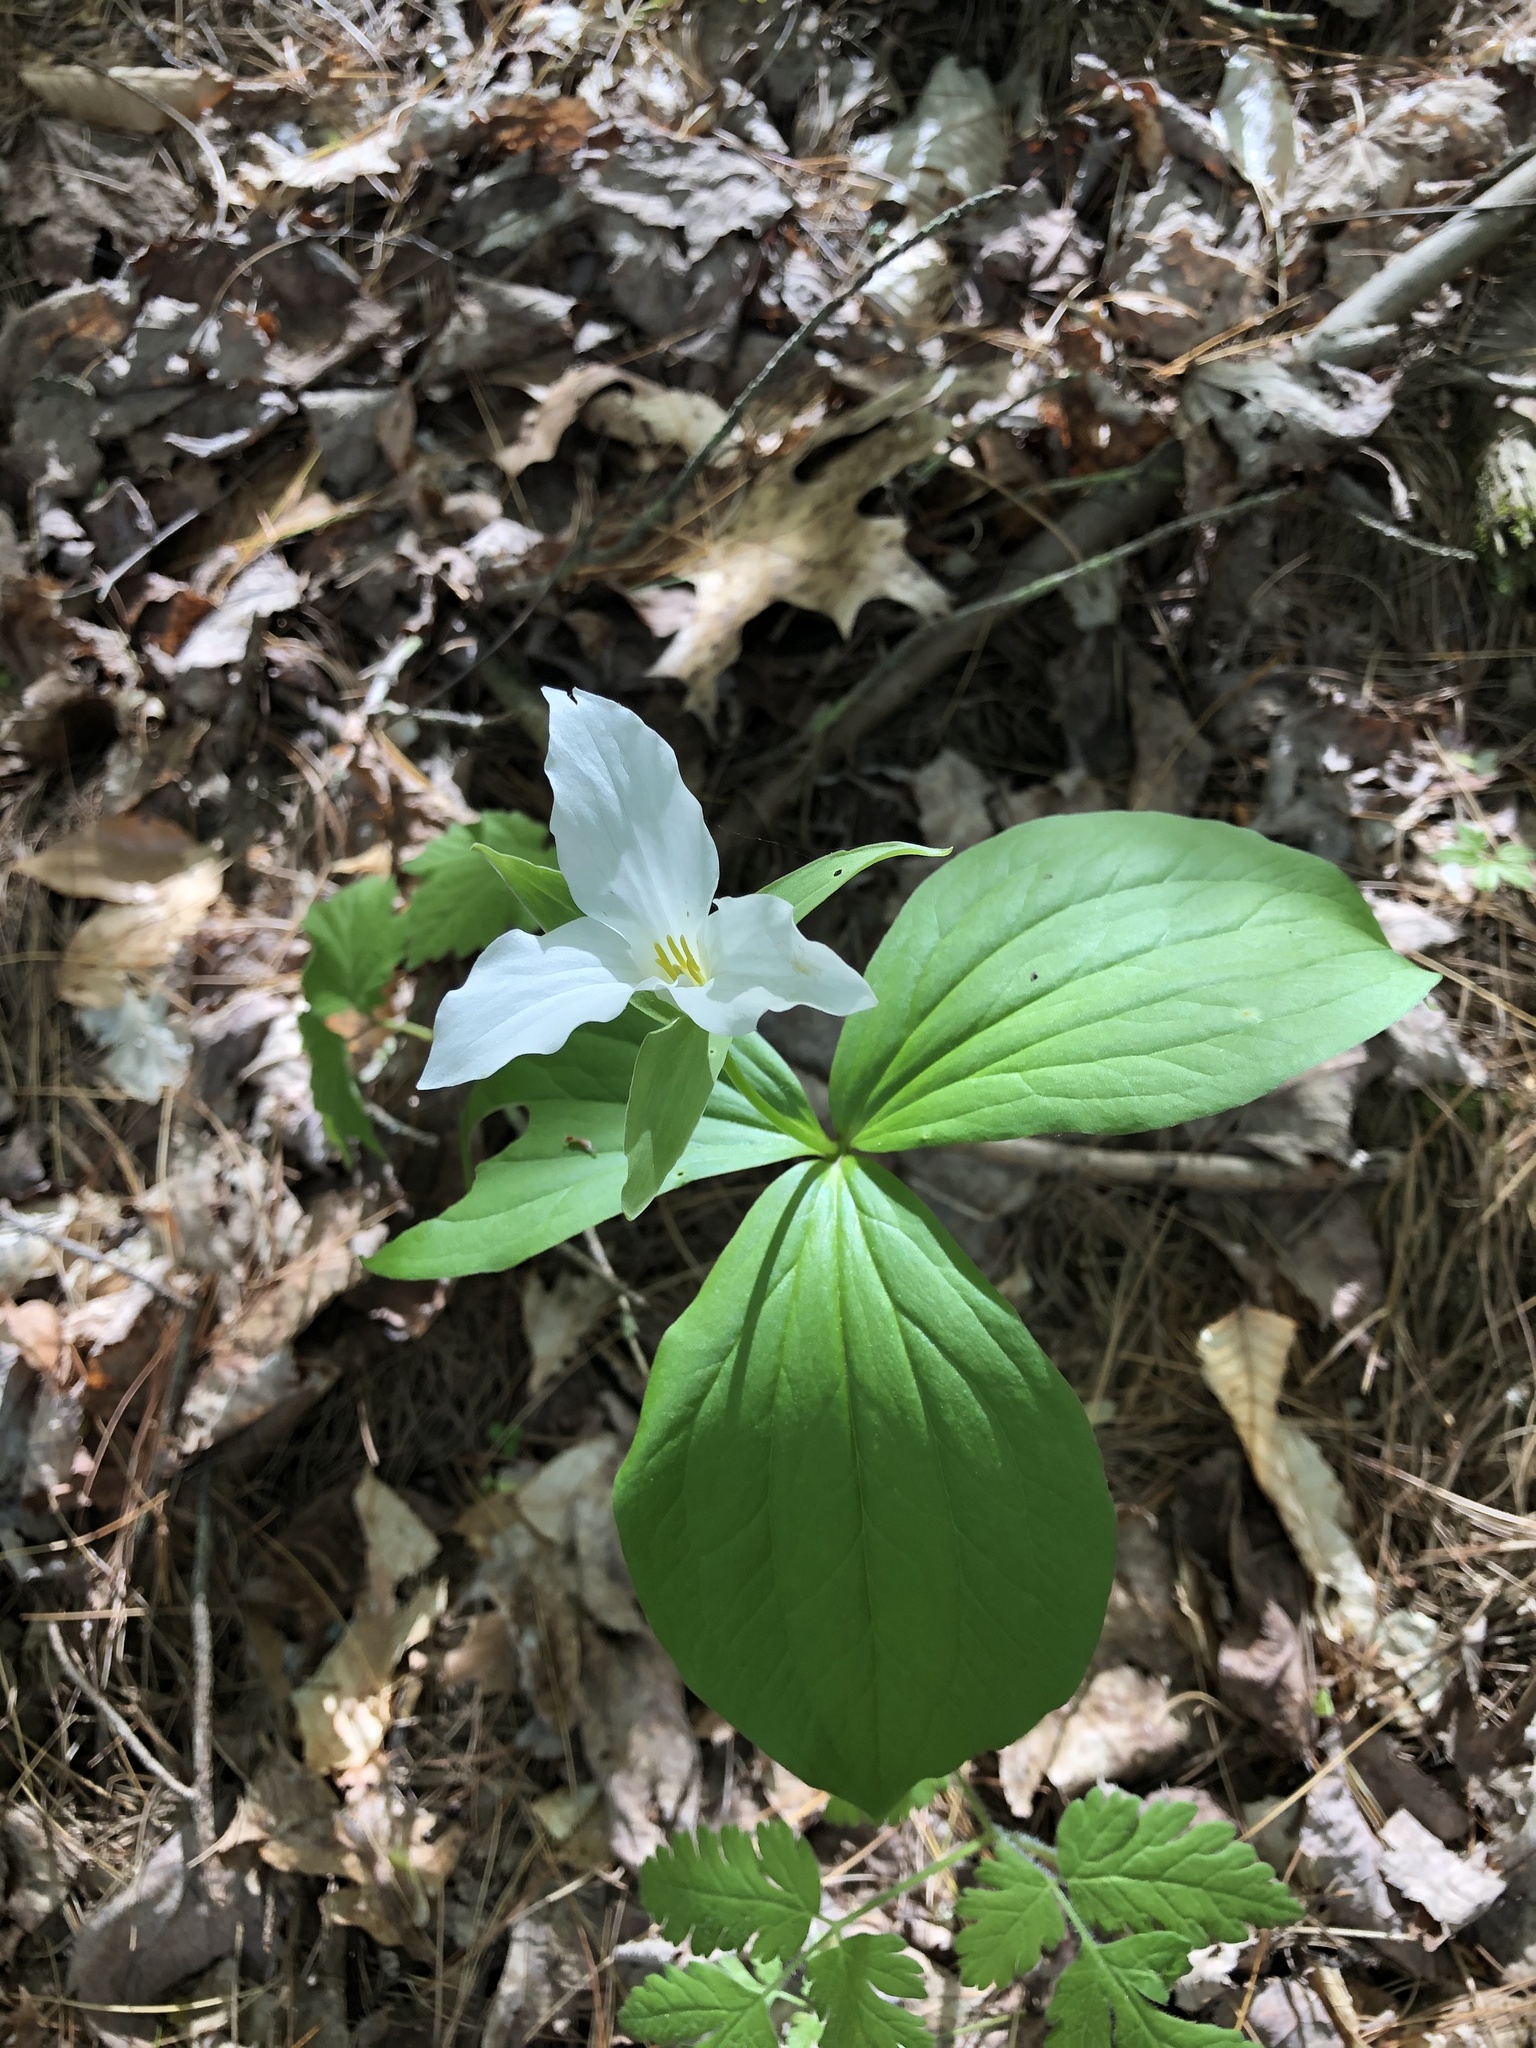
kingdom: Plantae
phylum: Tracheophyta
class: Liliopsida
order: Liliales
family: Melanthiaceae
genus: Trillium
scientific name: Trillium grandiflorum
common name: Great white trillium
